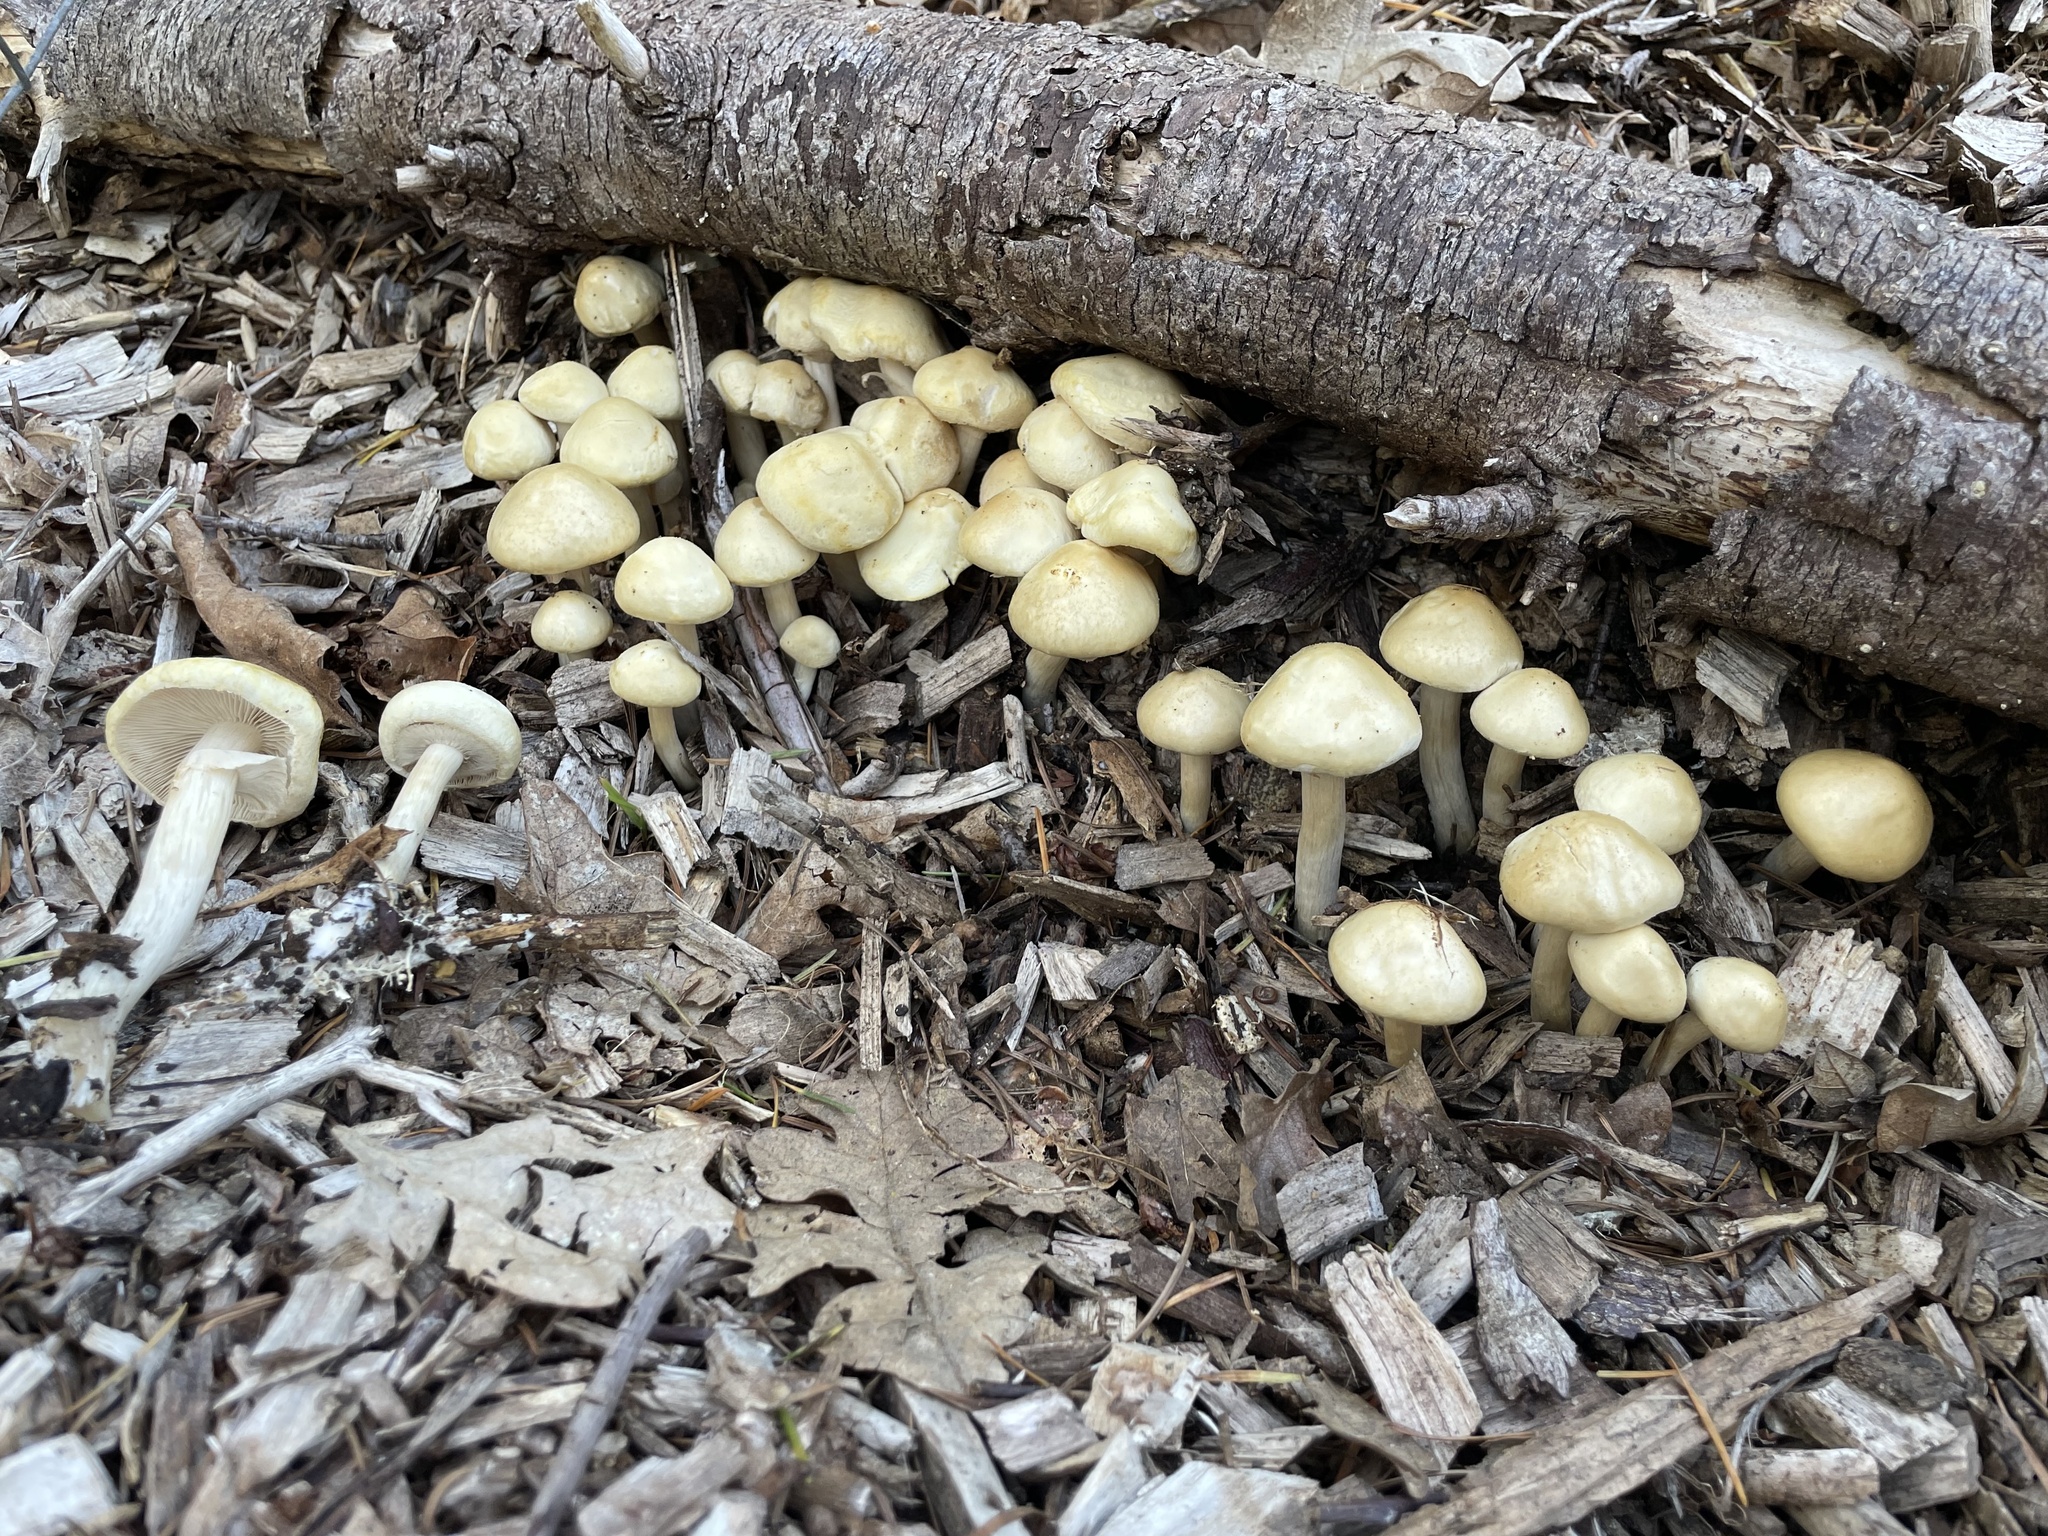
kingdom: Fungi
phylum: Basidiomycota
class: Agaricomycetes
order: Agaricales
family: Strophariaceae
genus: Agrocybe
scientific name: Agrocybe praecox
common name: Spring fieldcap
